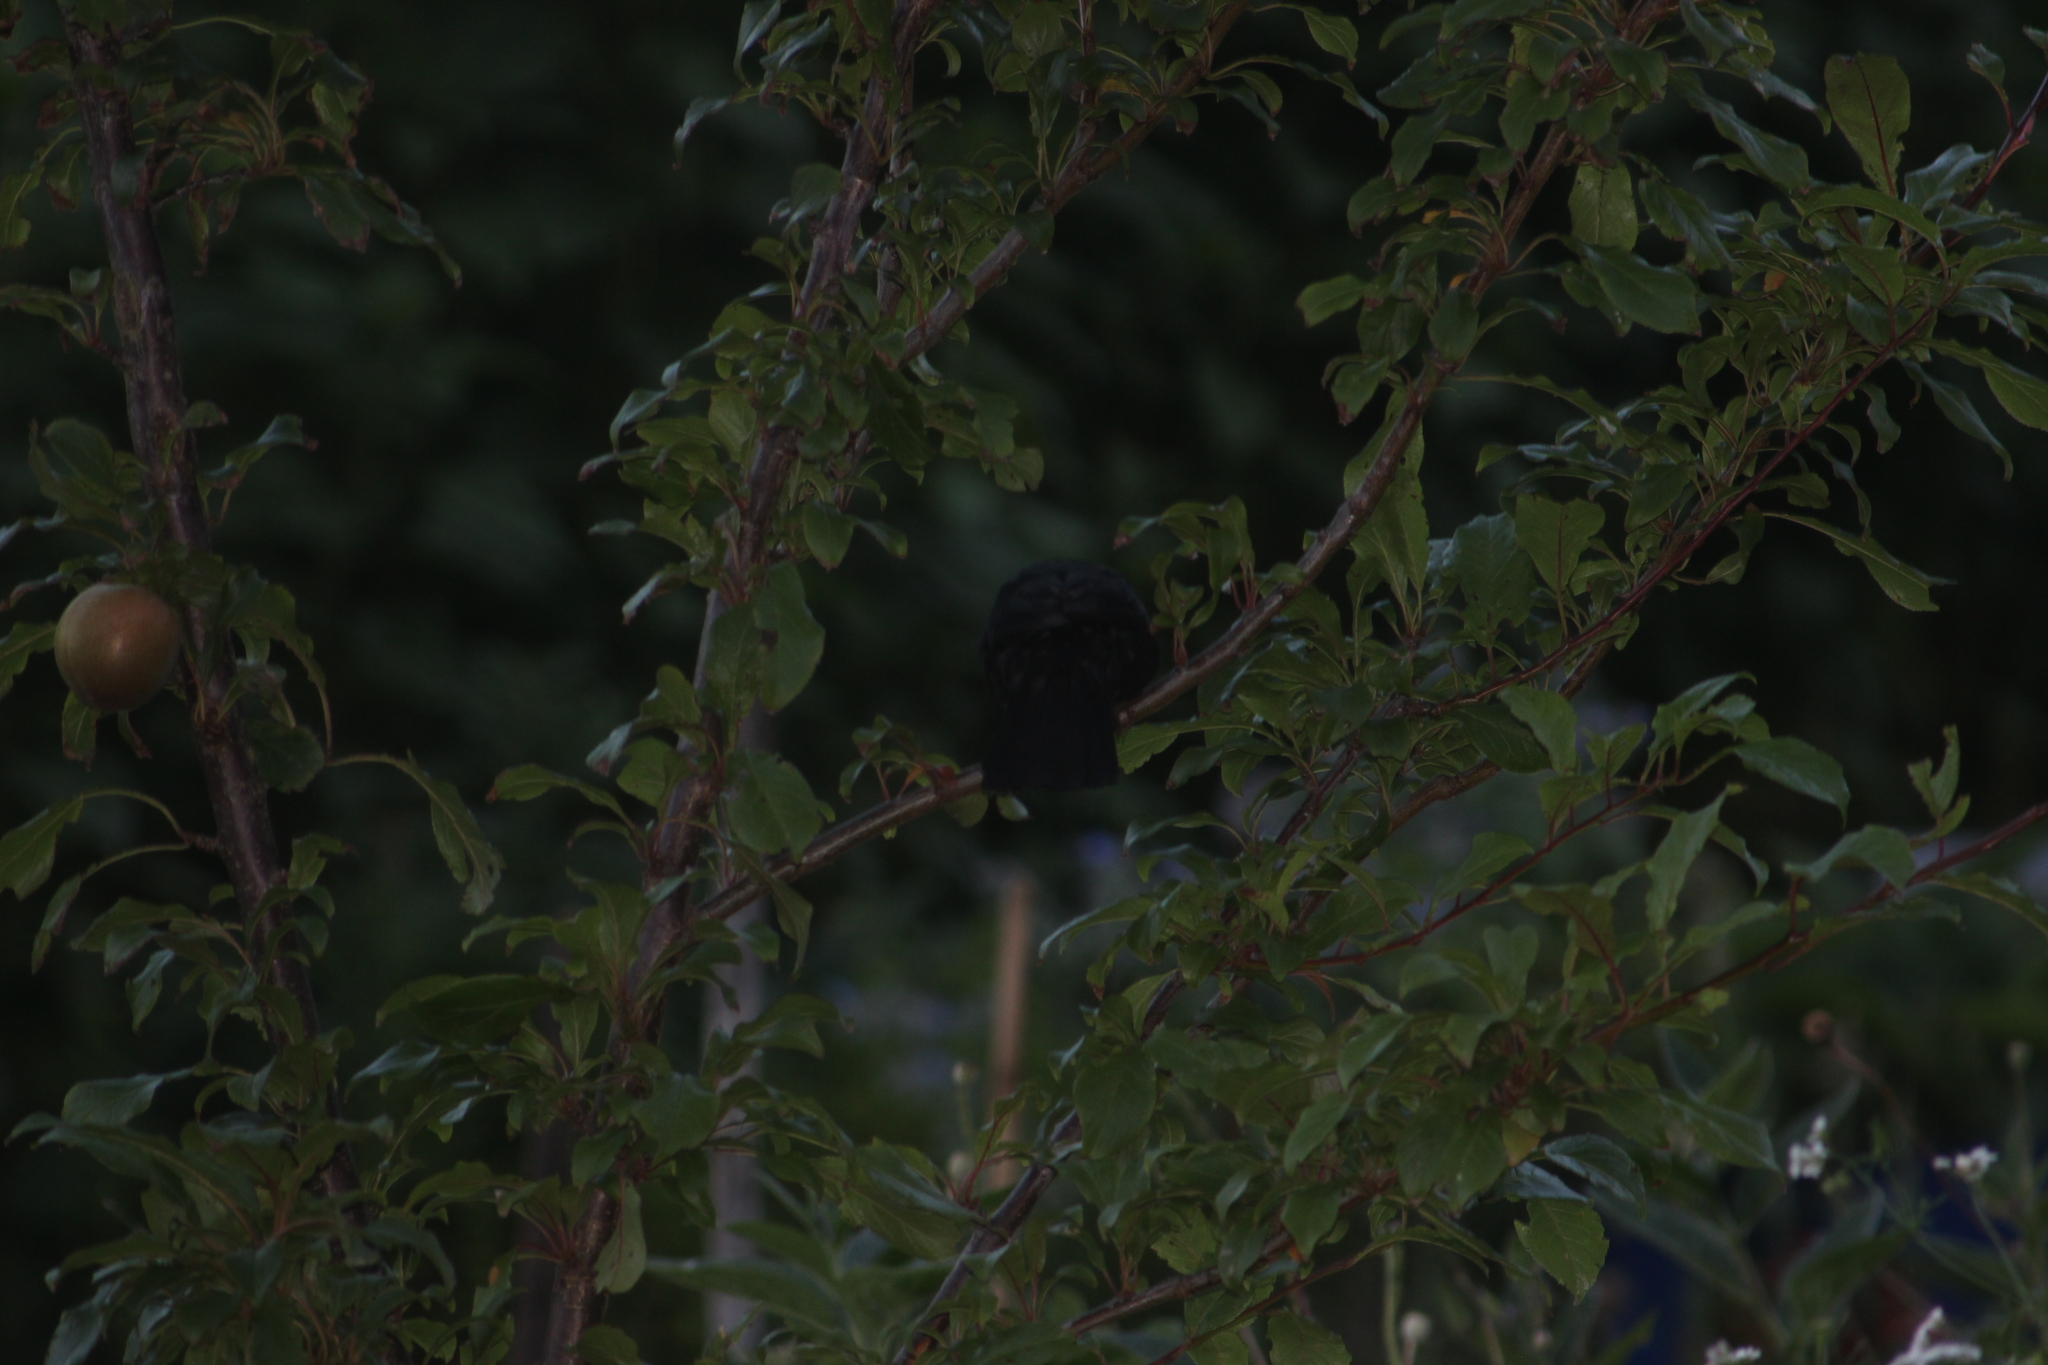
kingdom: Animalia
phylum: Chordata
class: Aves
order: Passeriformes
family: Turdidae
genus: Turdus
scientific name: Turdus merula
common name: Common blackbird
